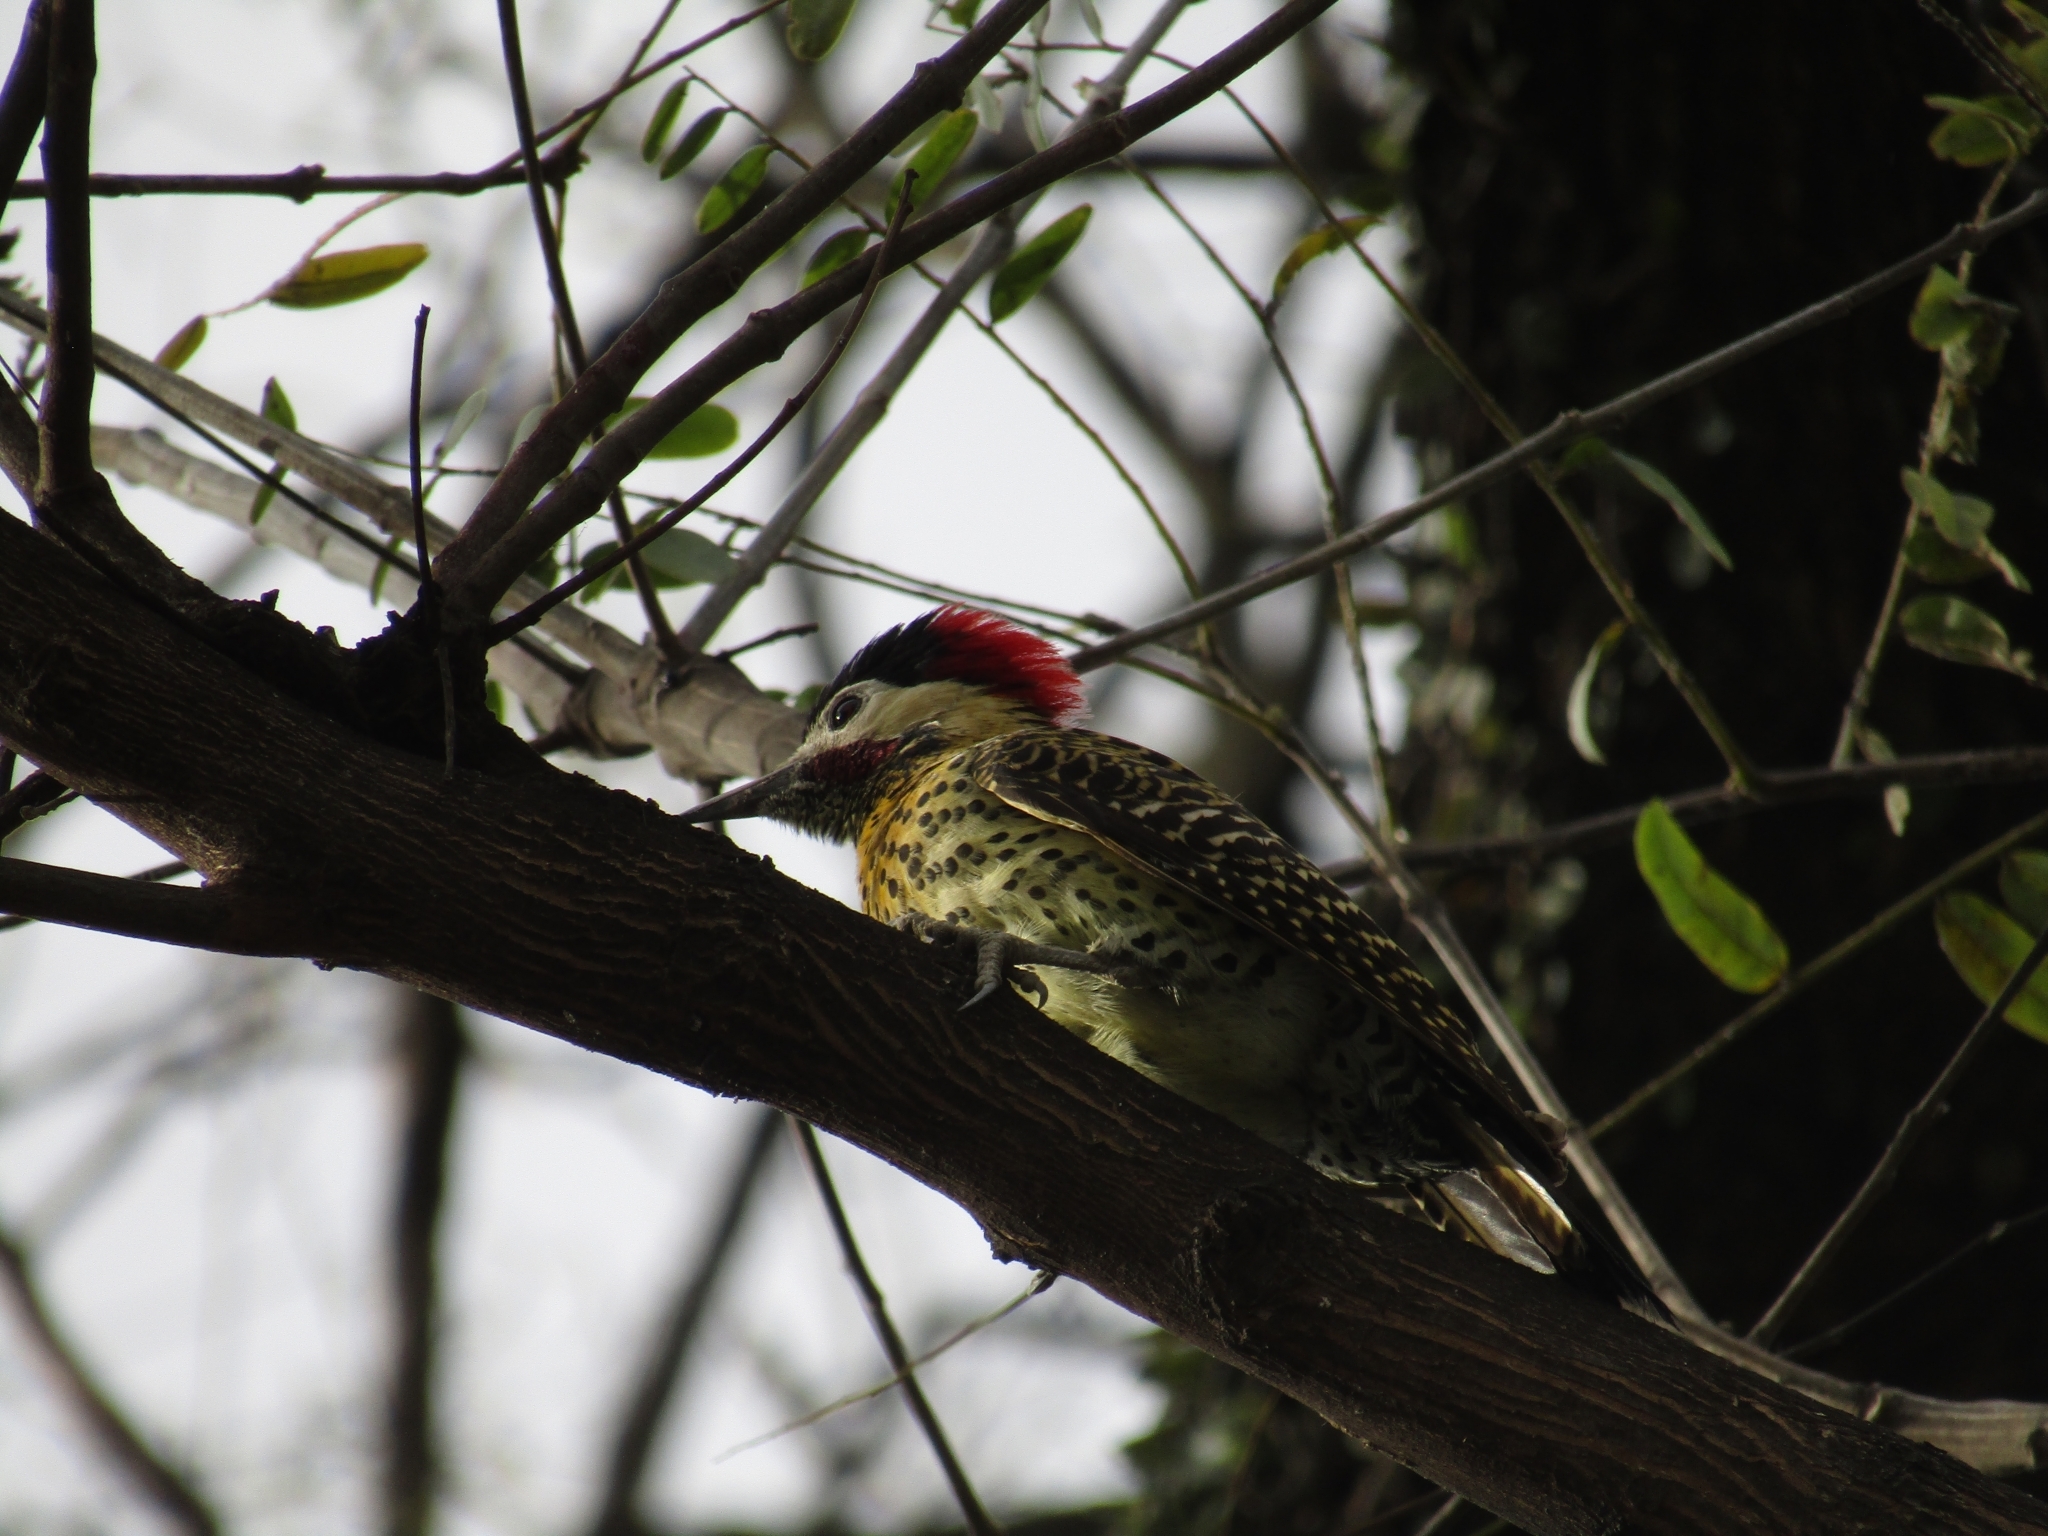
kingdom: Animalia
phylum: Chordata
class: Aves
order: Piciformes
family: Picidae
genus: Colaptes
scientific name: Colaptes melanochloros
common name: Green-barred woodpecker
